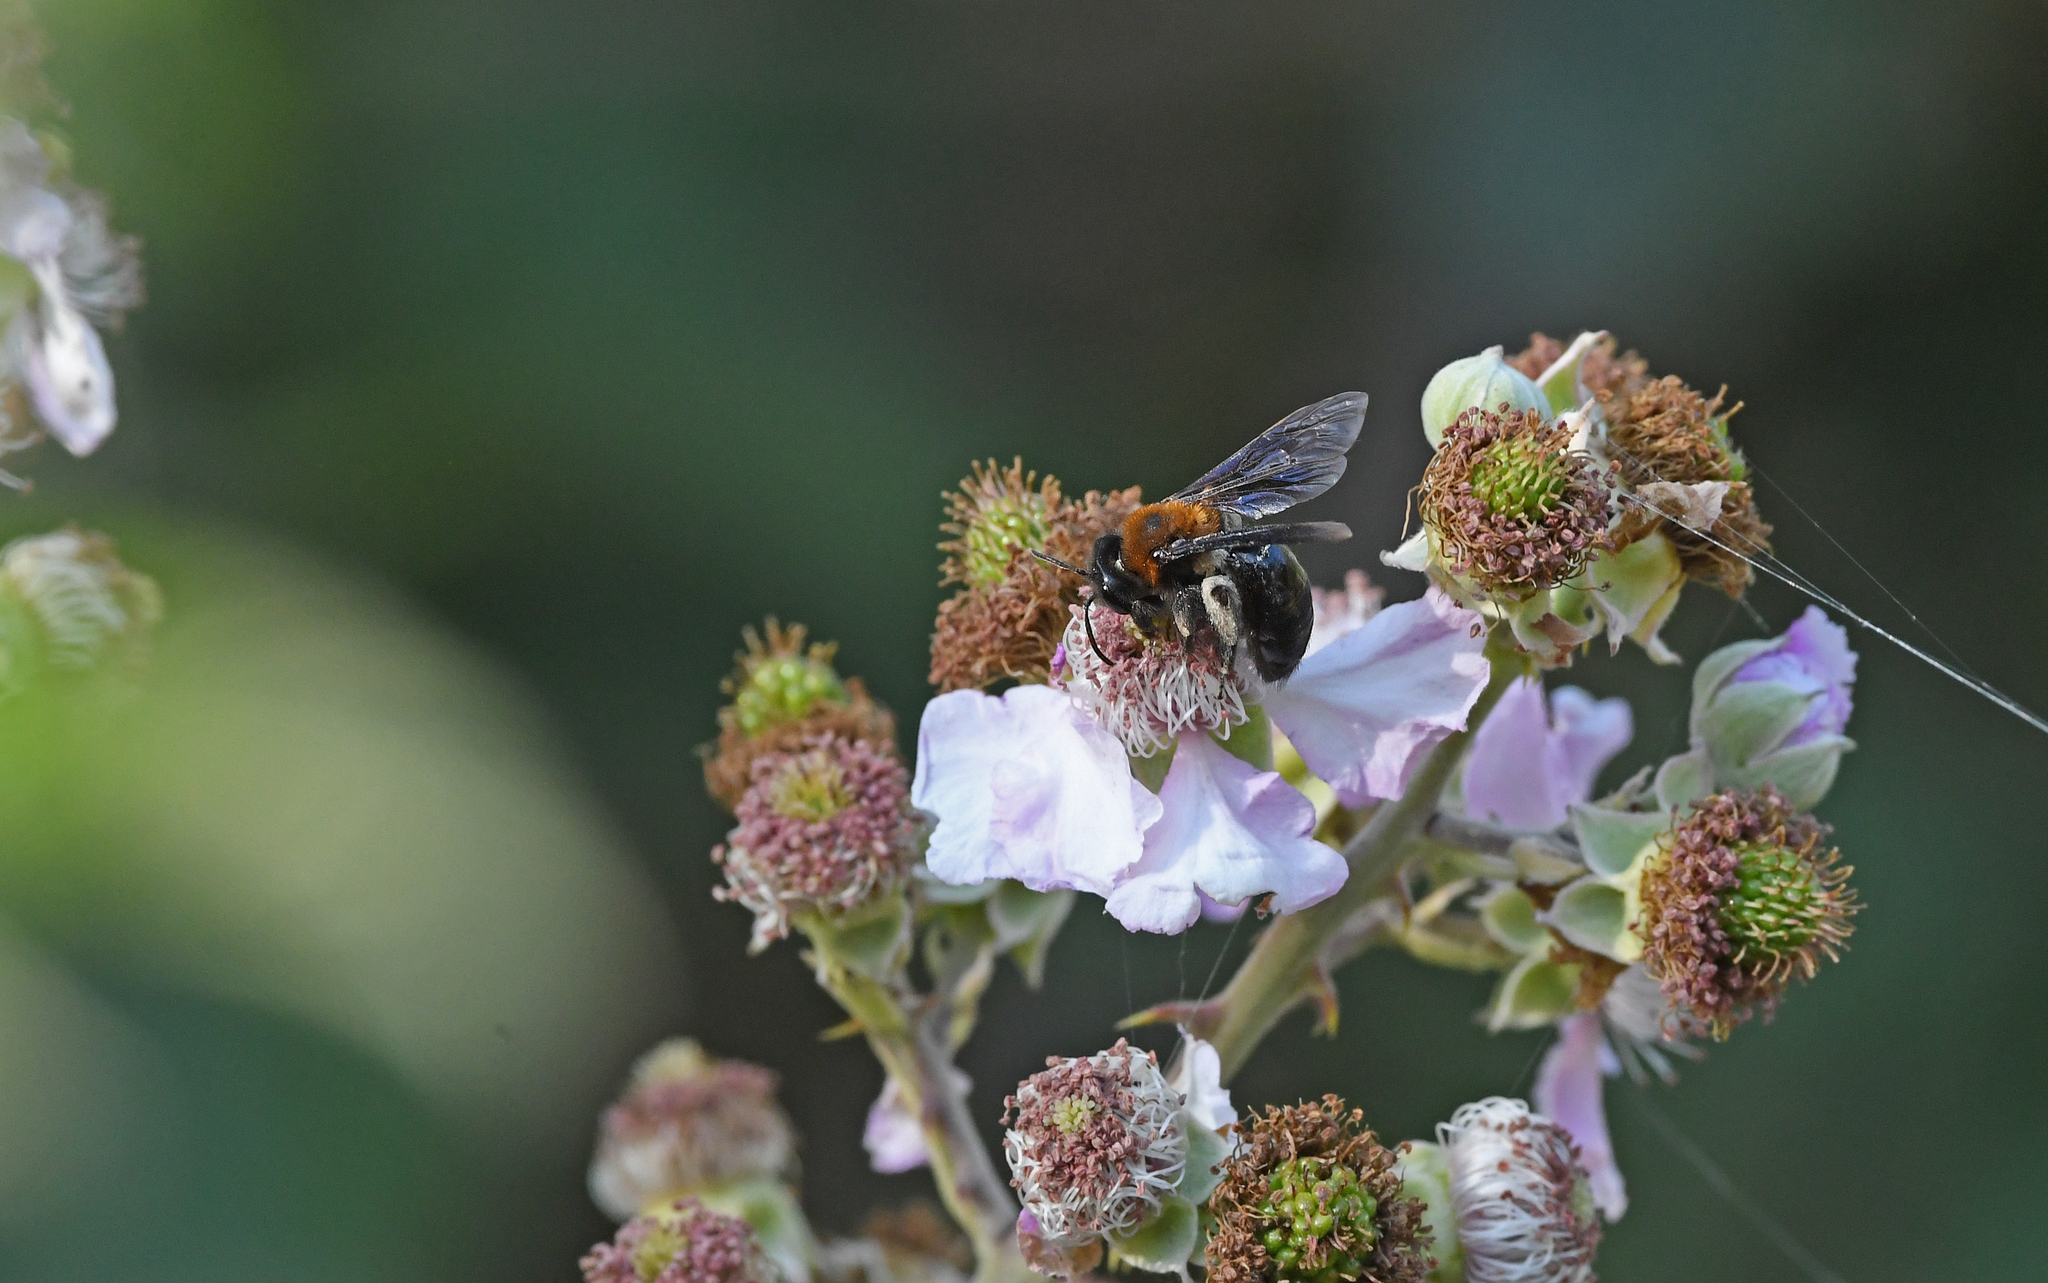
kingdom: Animalia
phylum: Arthropoda
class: Insecta
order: Hymenoptera
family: Andrenidae
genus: Andrena
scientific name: Andrena thoracica
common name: Cliff mining bee
